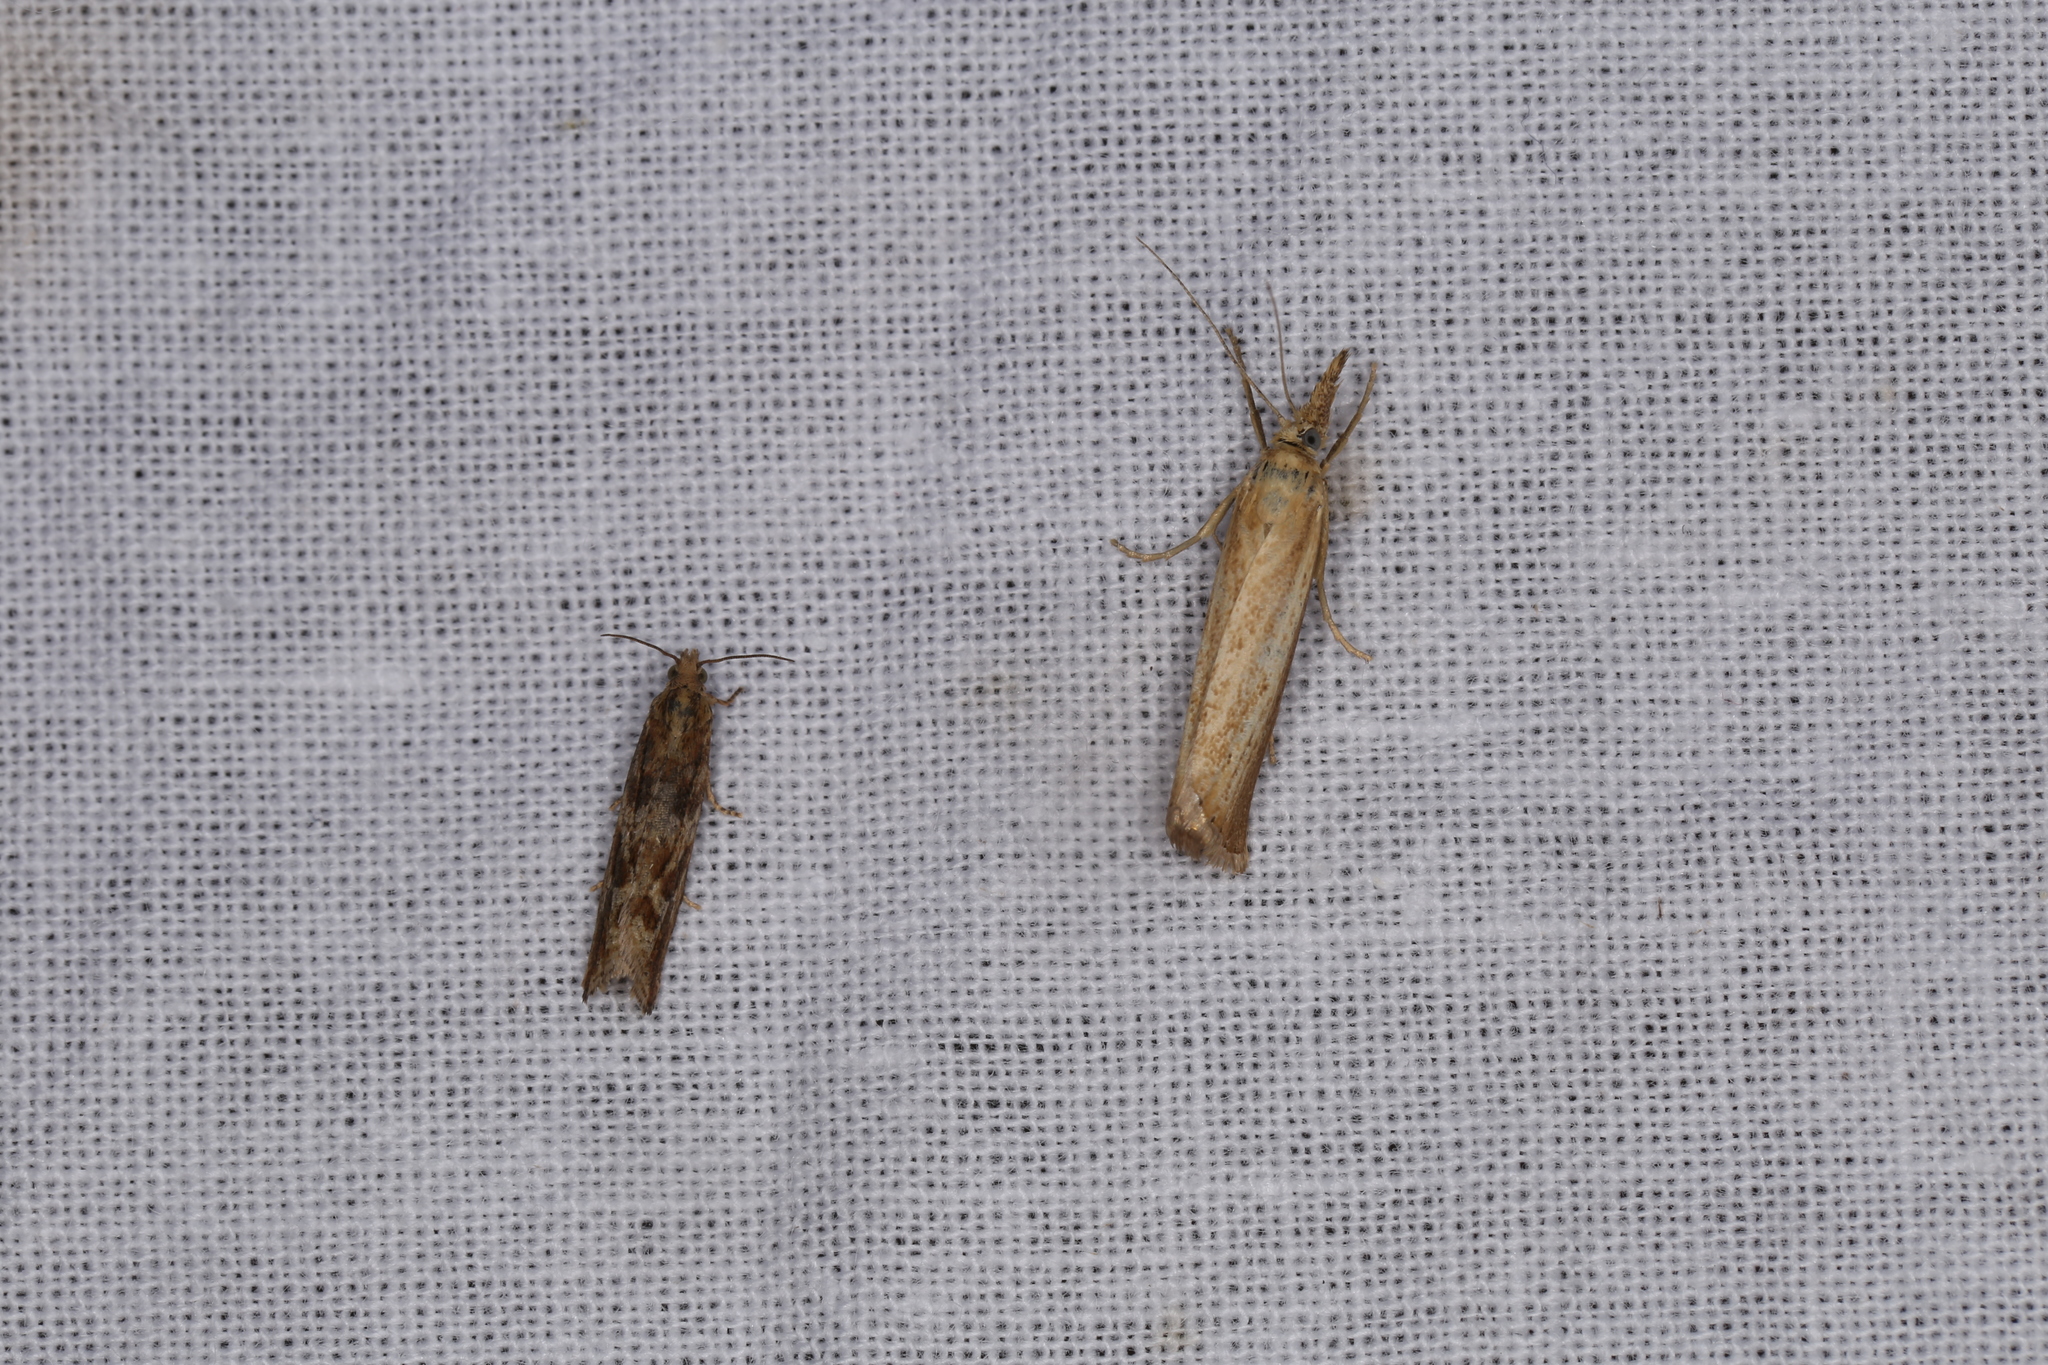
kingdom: Animalia
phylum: Arthropoda
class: Insecta
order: Lepidoptera
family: Tortricidae
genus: Bactra
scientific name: Bactra furfurana
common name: Mottled marble
